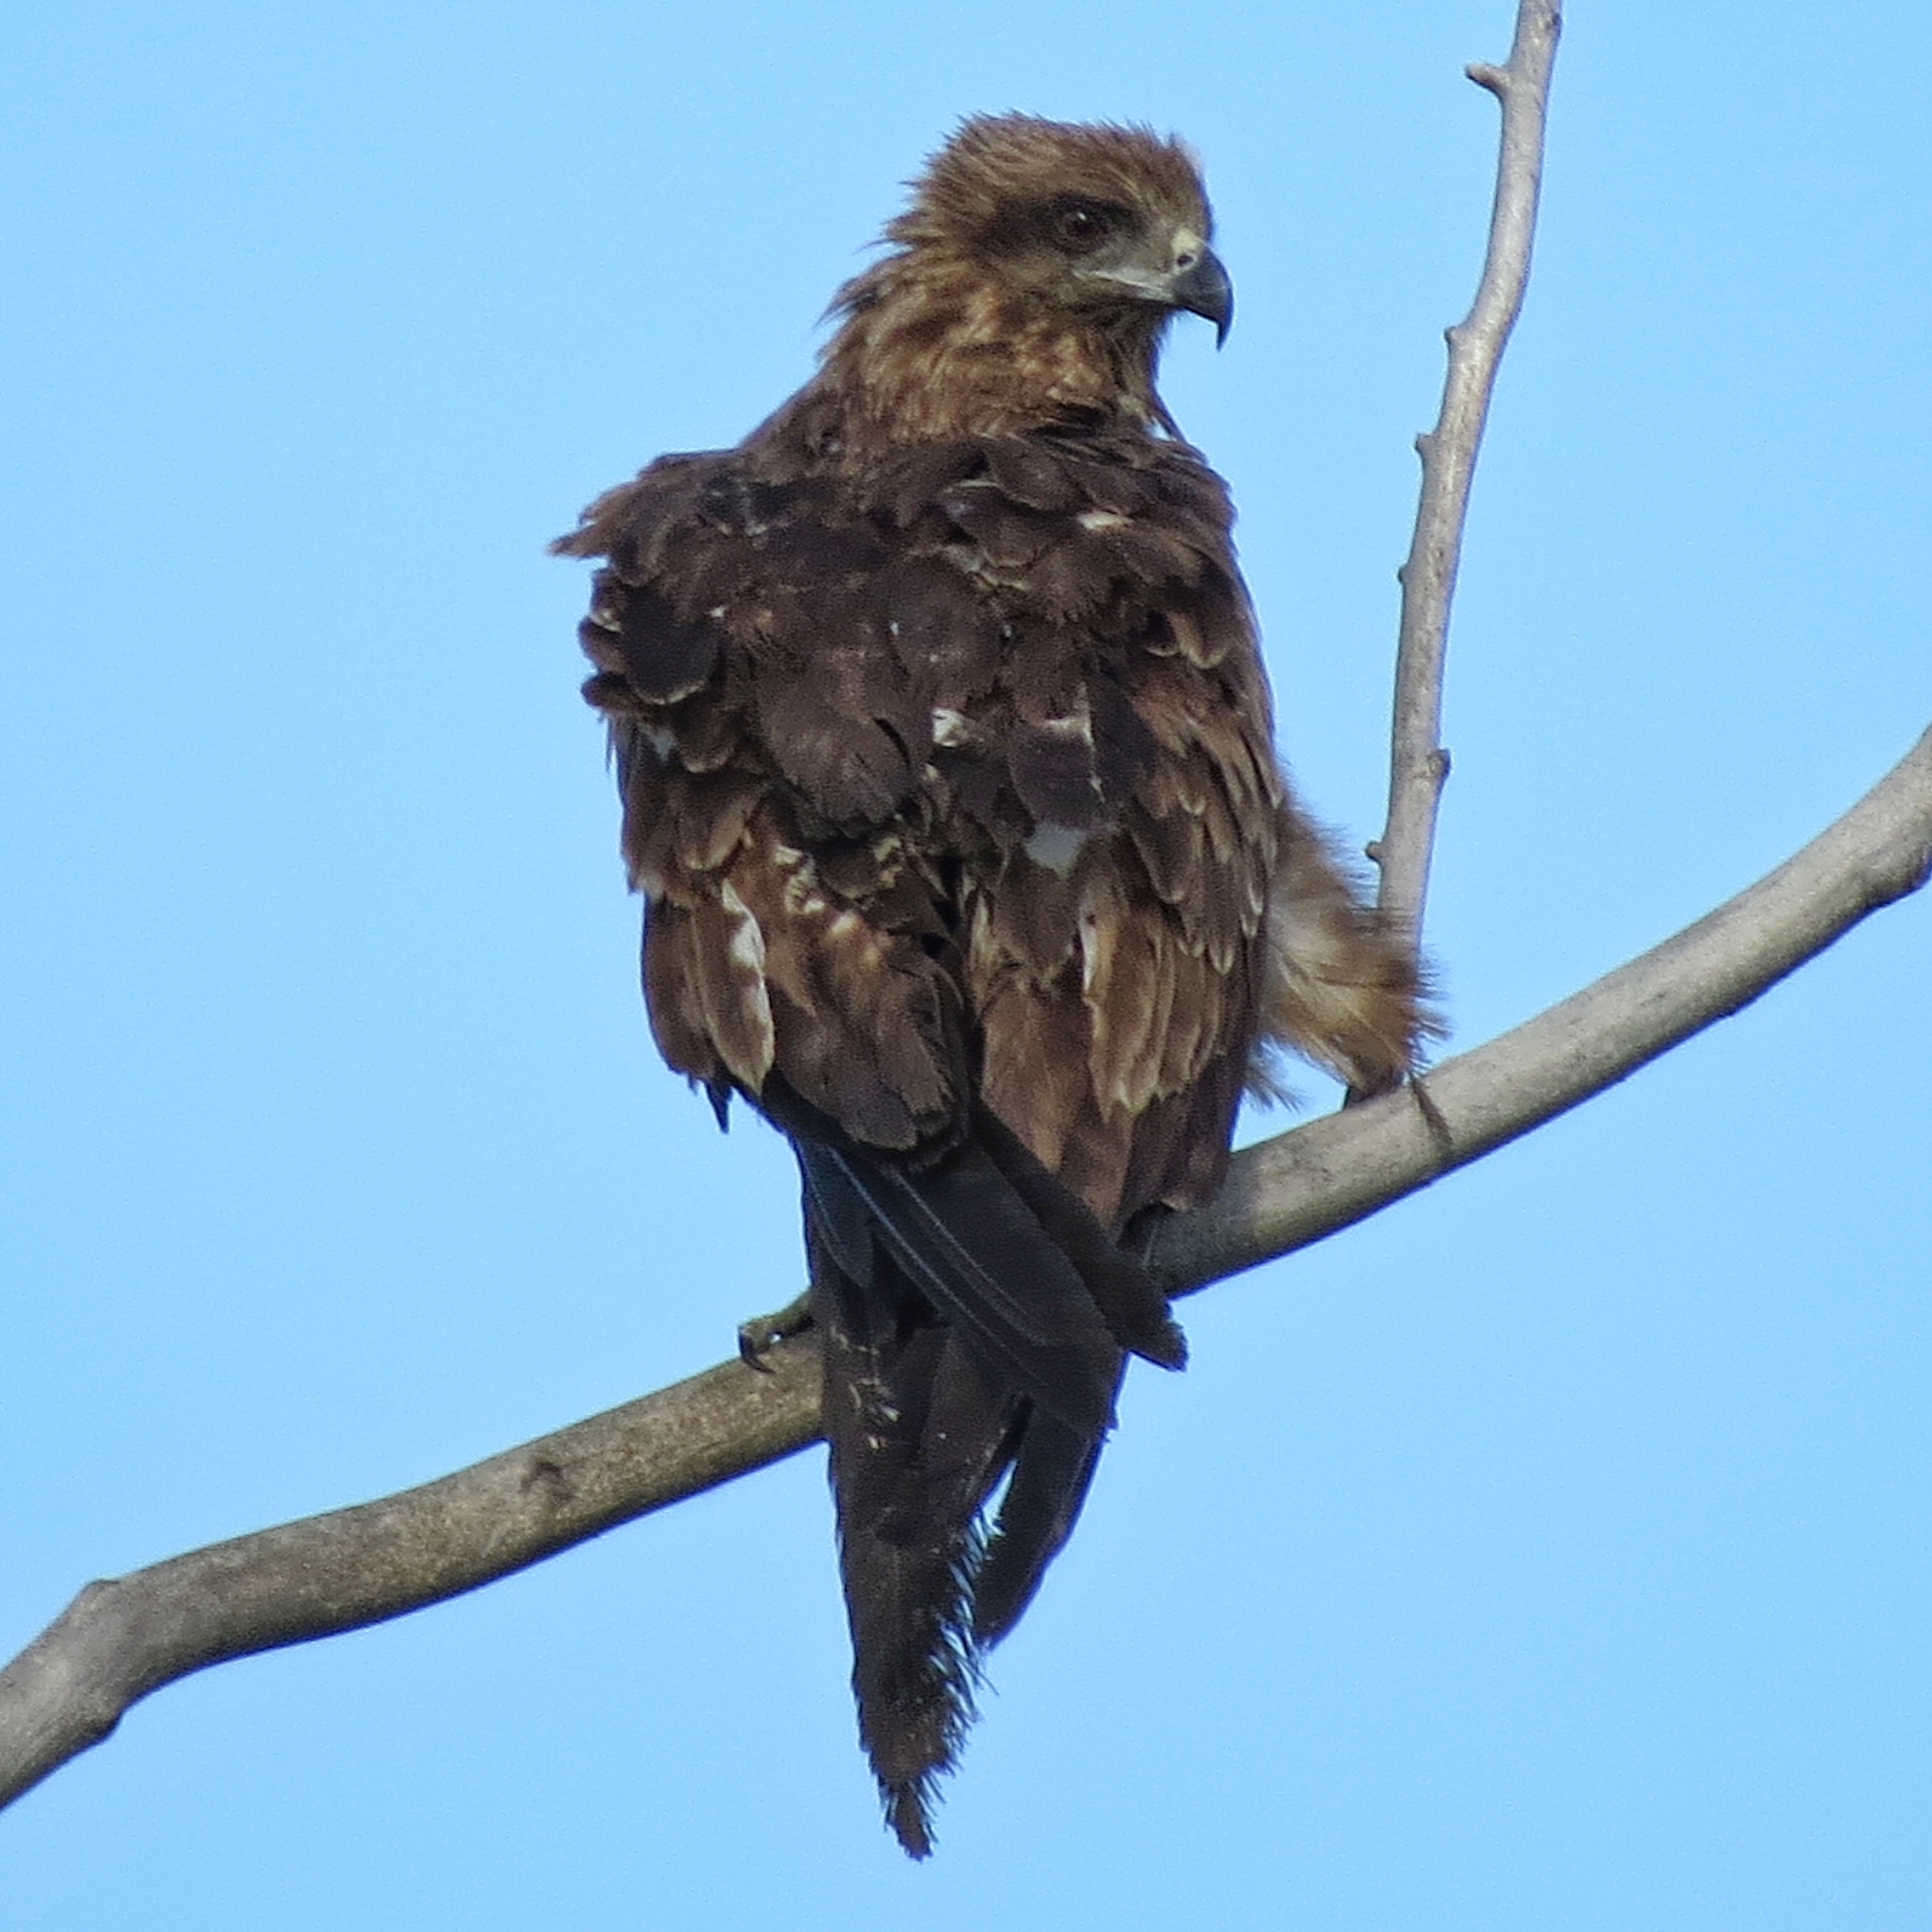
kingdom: Animalia
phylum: Chordata
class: Aves
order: Accipitriformes
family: Accipitridae
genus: Milvus
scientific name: Milvus migrans
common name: Black kite
